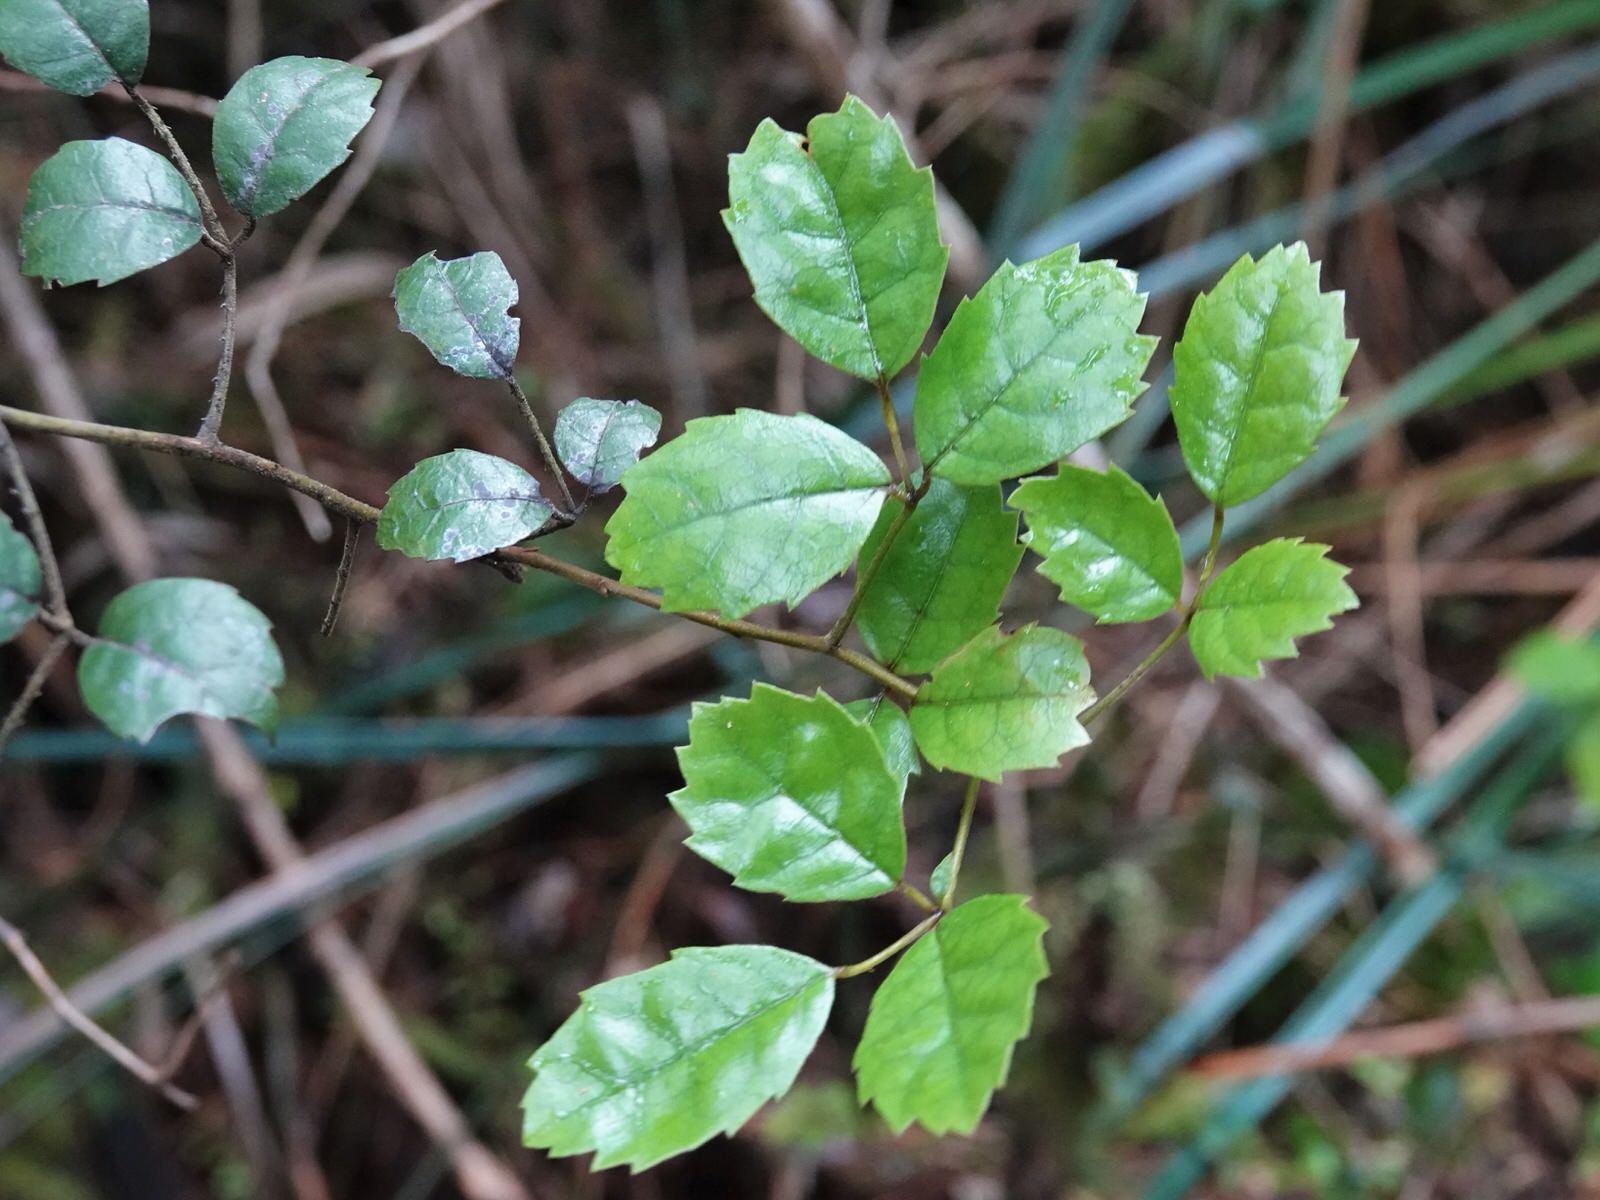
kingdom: Plantae
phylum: Tracheophyta
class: Magnoliopsida
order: Rosales
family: Rosaceae
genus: Rubus
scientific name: Rubus australis
